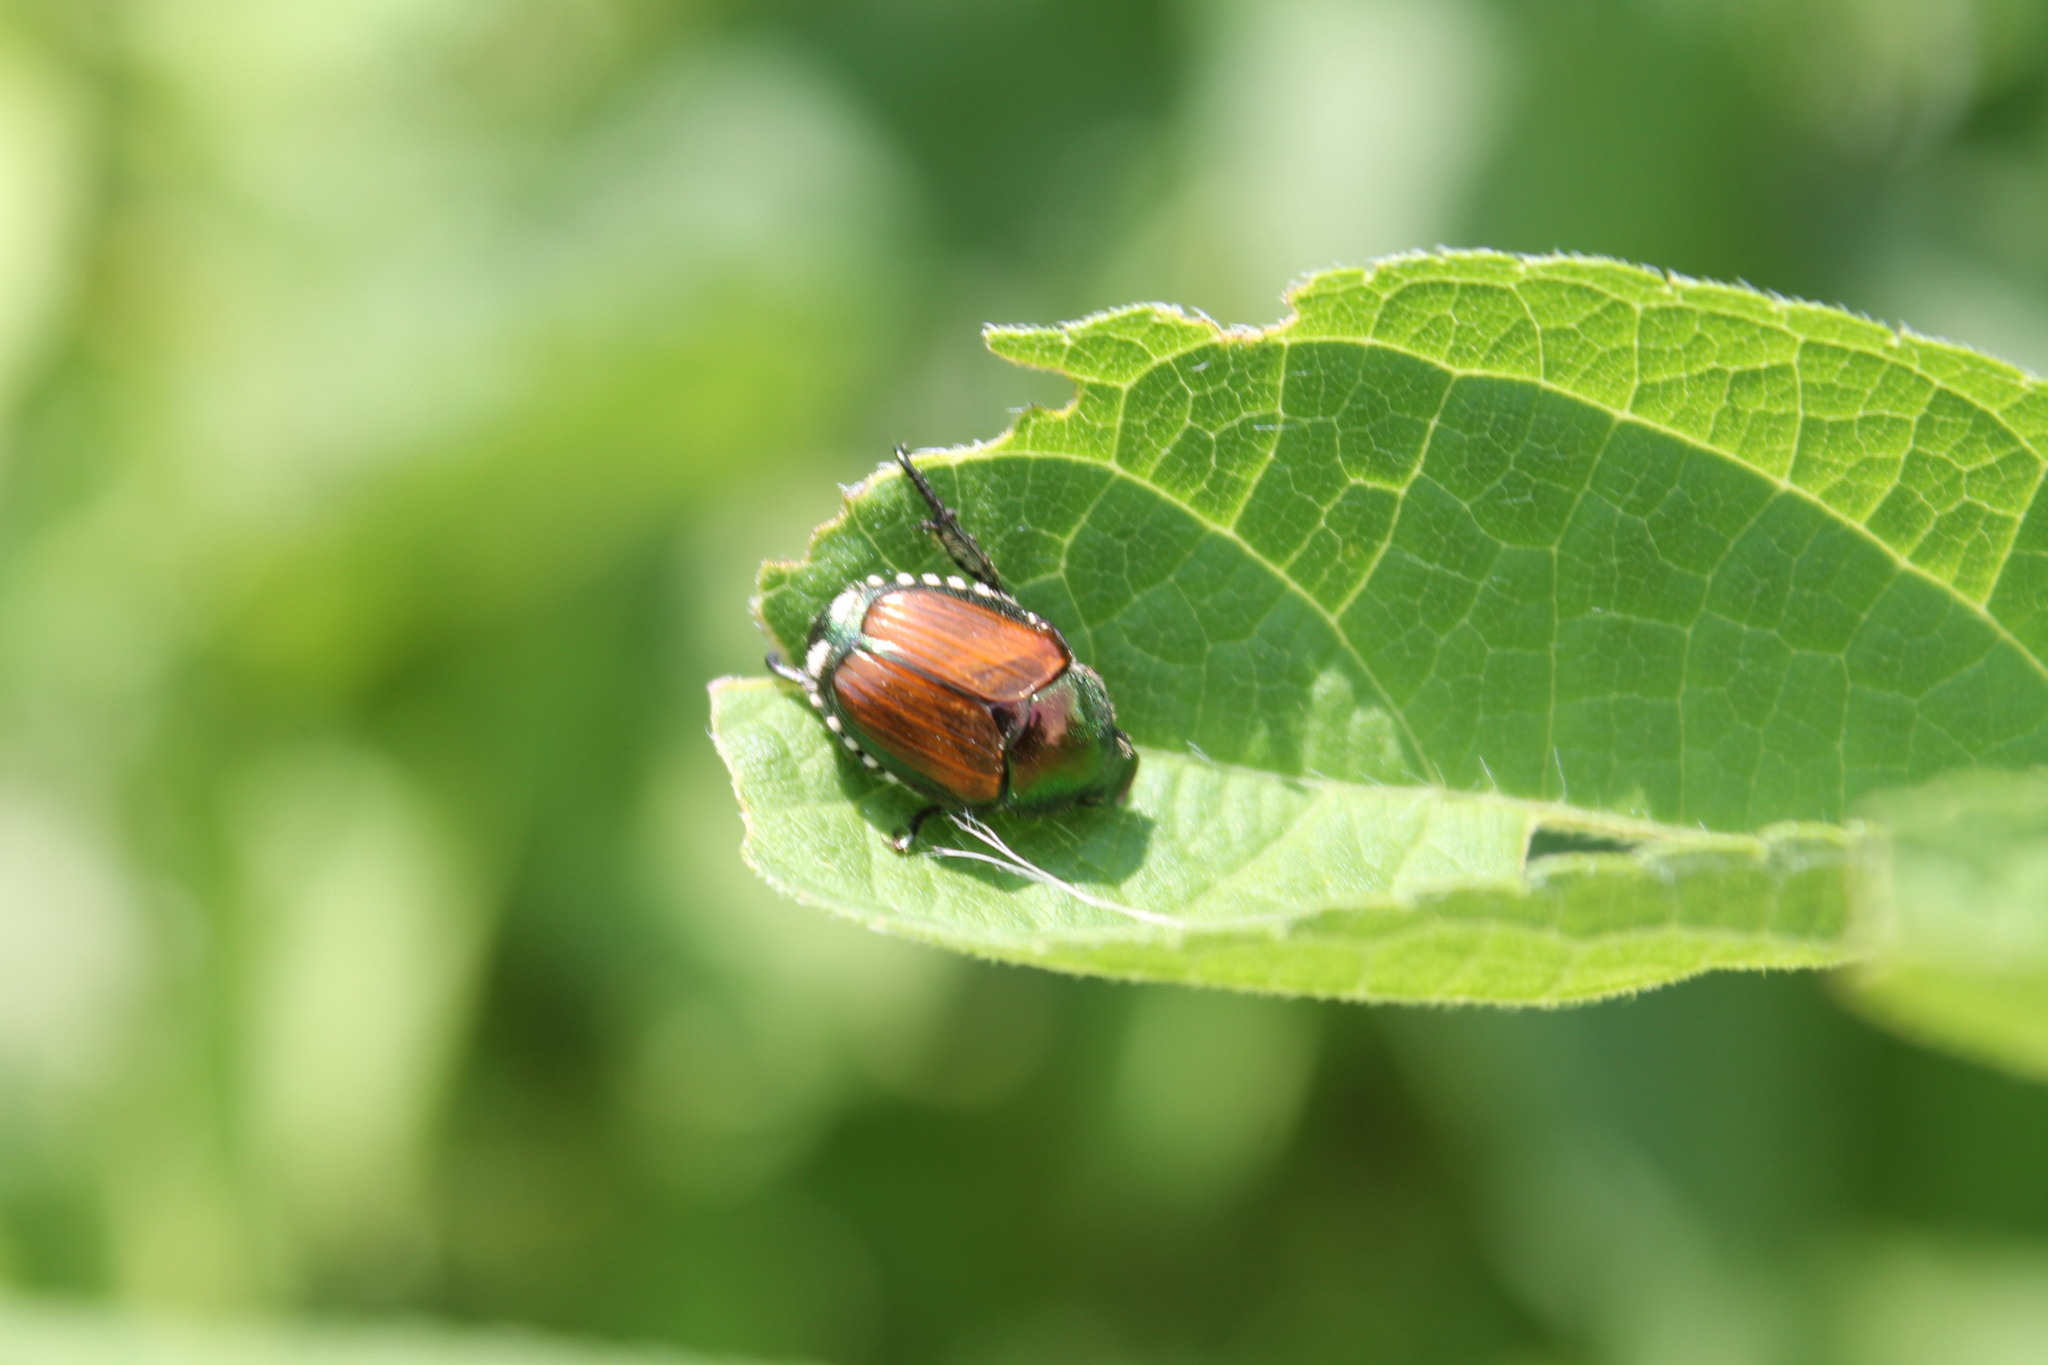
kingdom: Animalia
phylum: Arthropoda
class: Insecta
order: Coleoptera
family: Scarabaeidae
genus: Popillia
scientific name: Popillia japonica
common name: Japanese beetle
